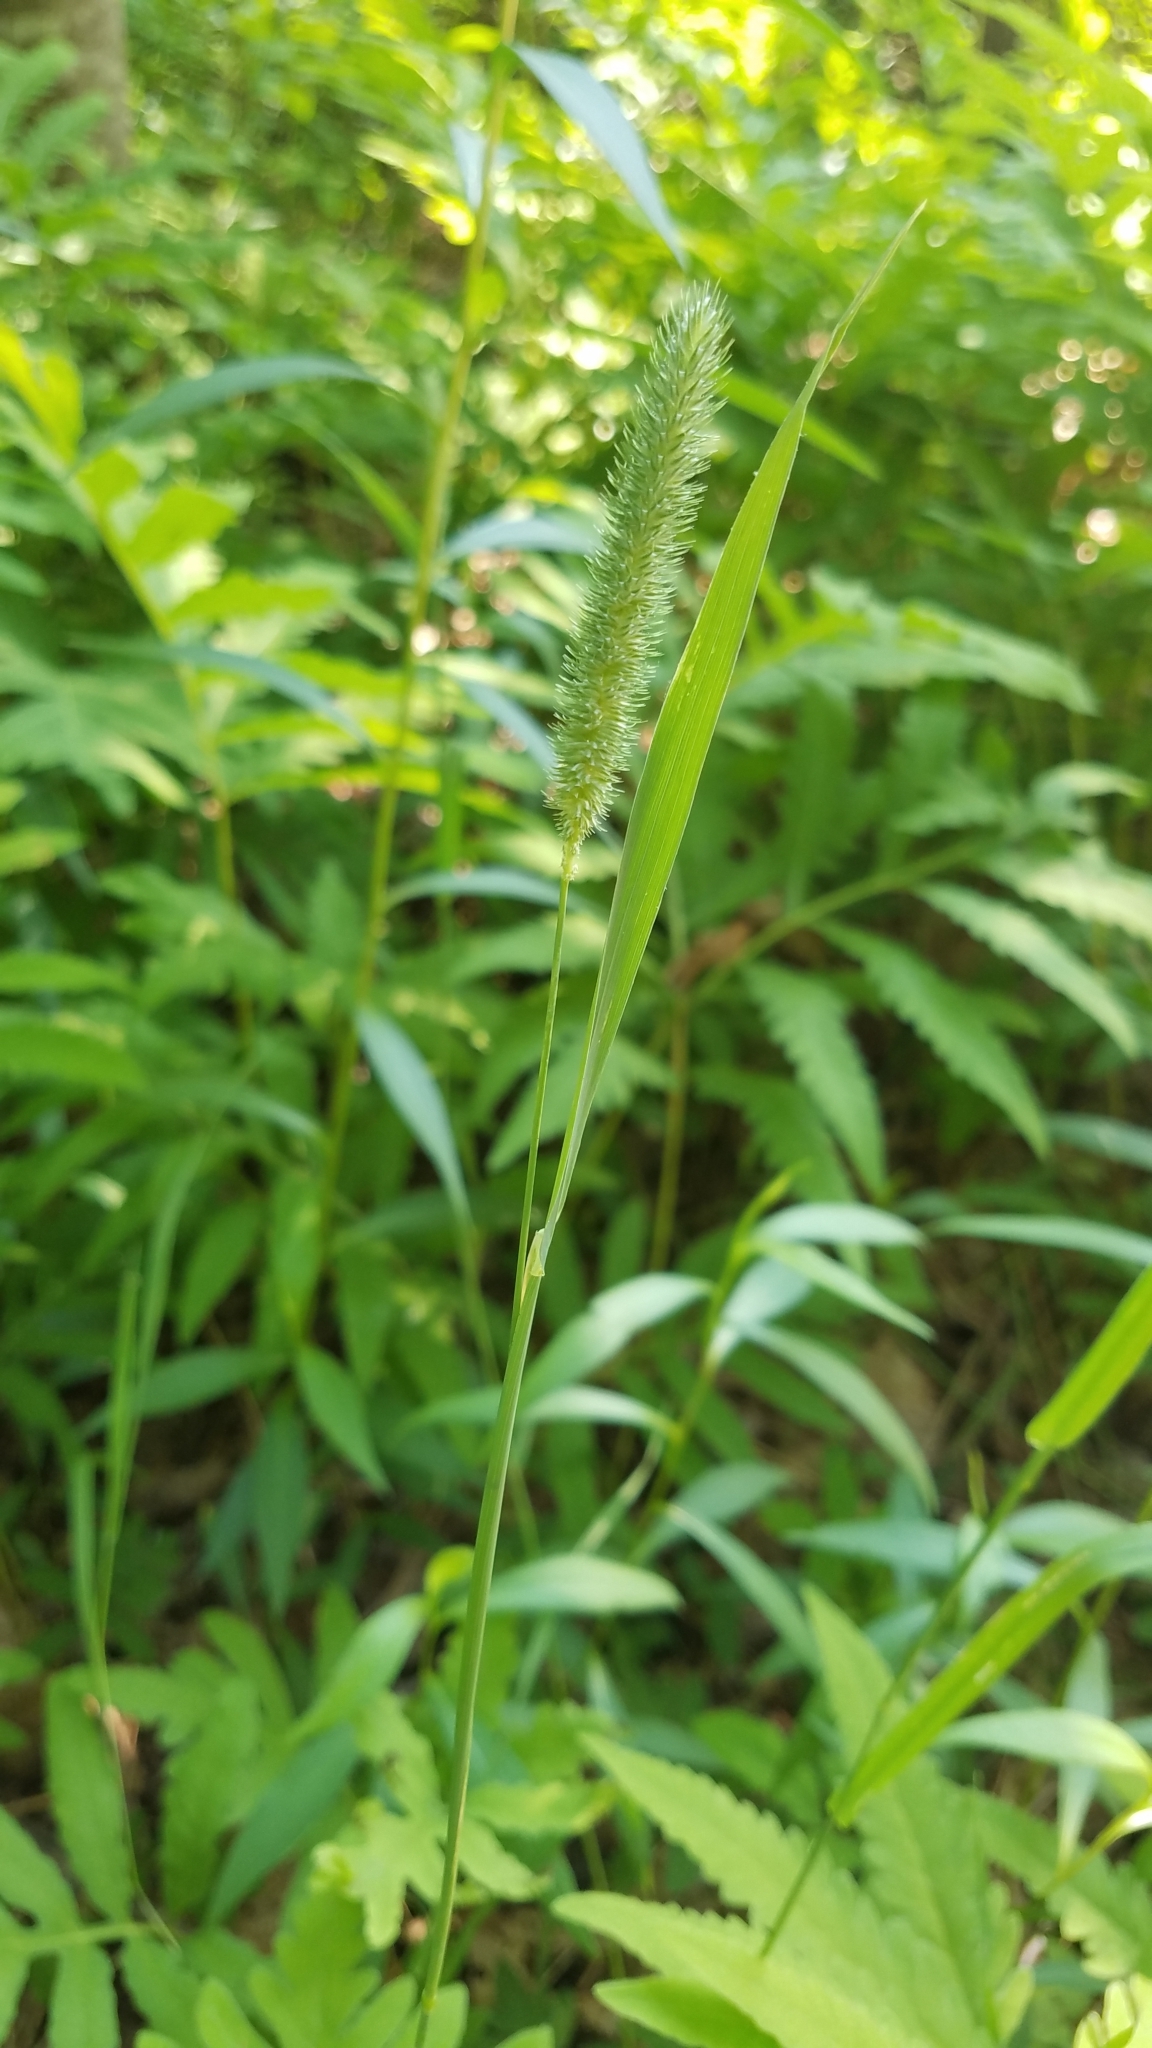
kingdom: Plantae
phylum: Tracheophyta
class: Liliopsida
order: Poales
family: Poaceae
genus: Phleum
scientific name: Phleum pratense
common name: Timothy grass
